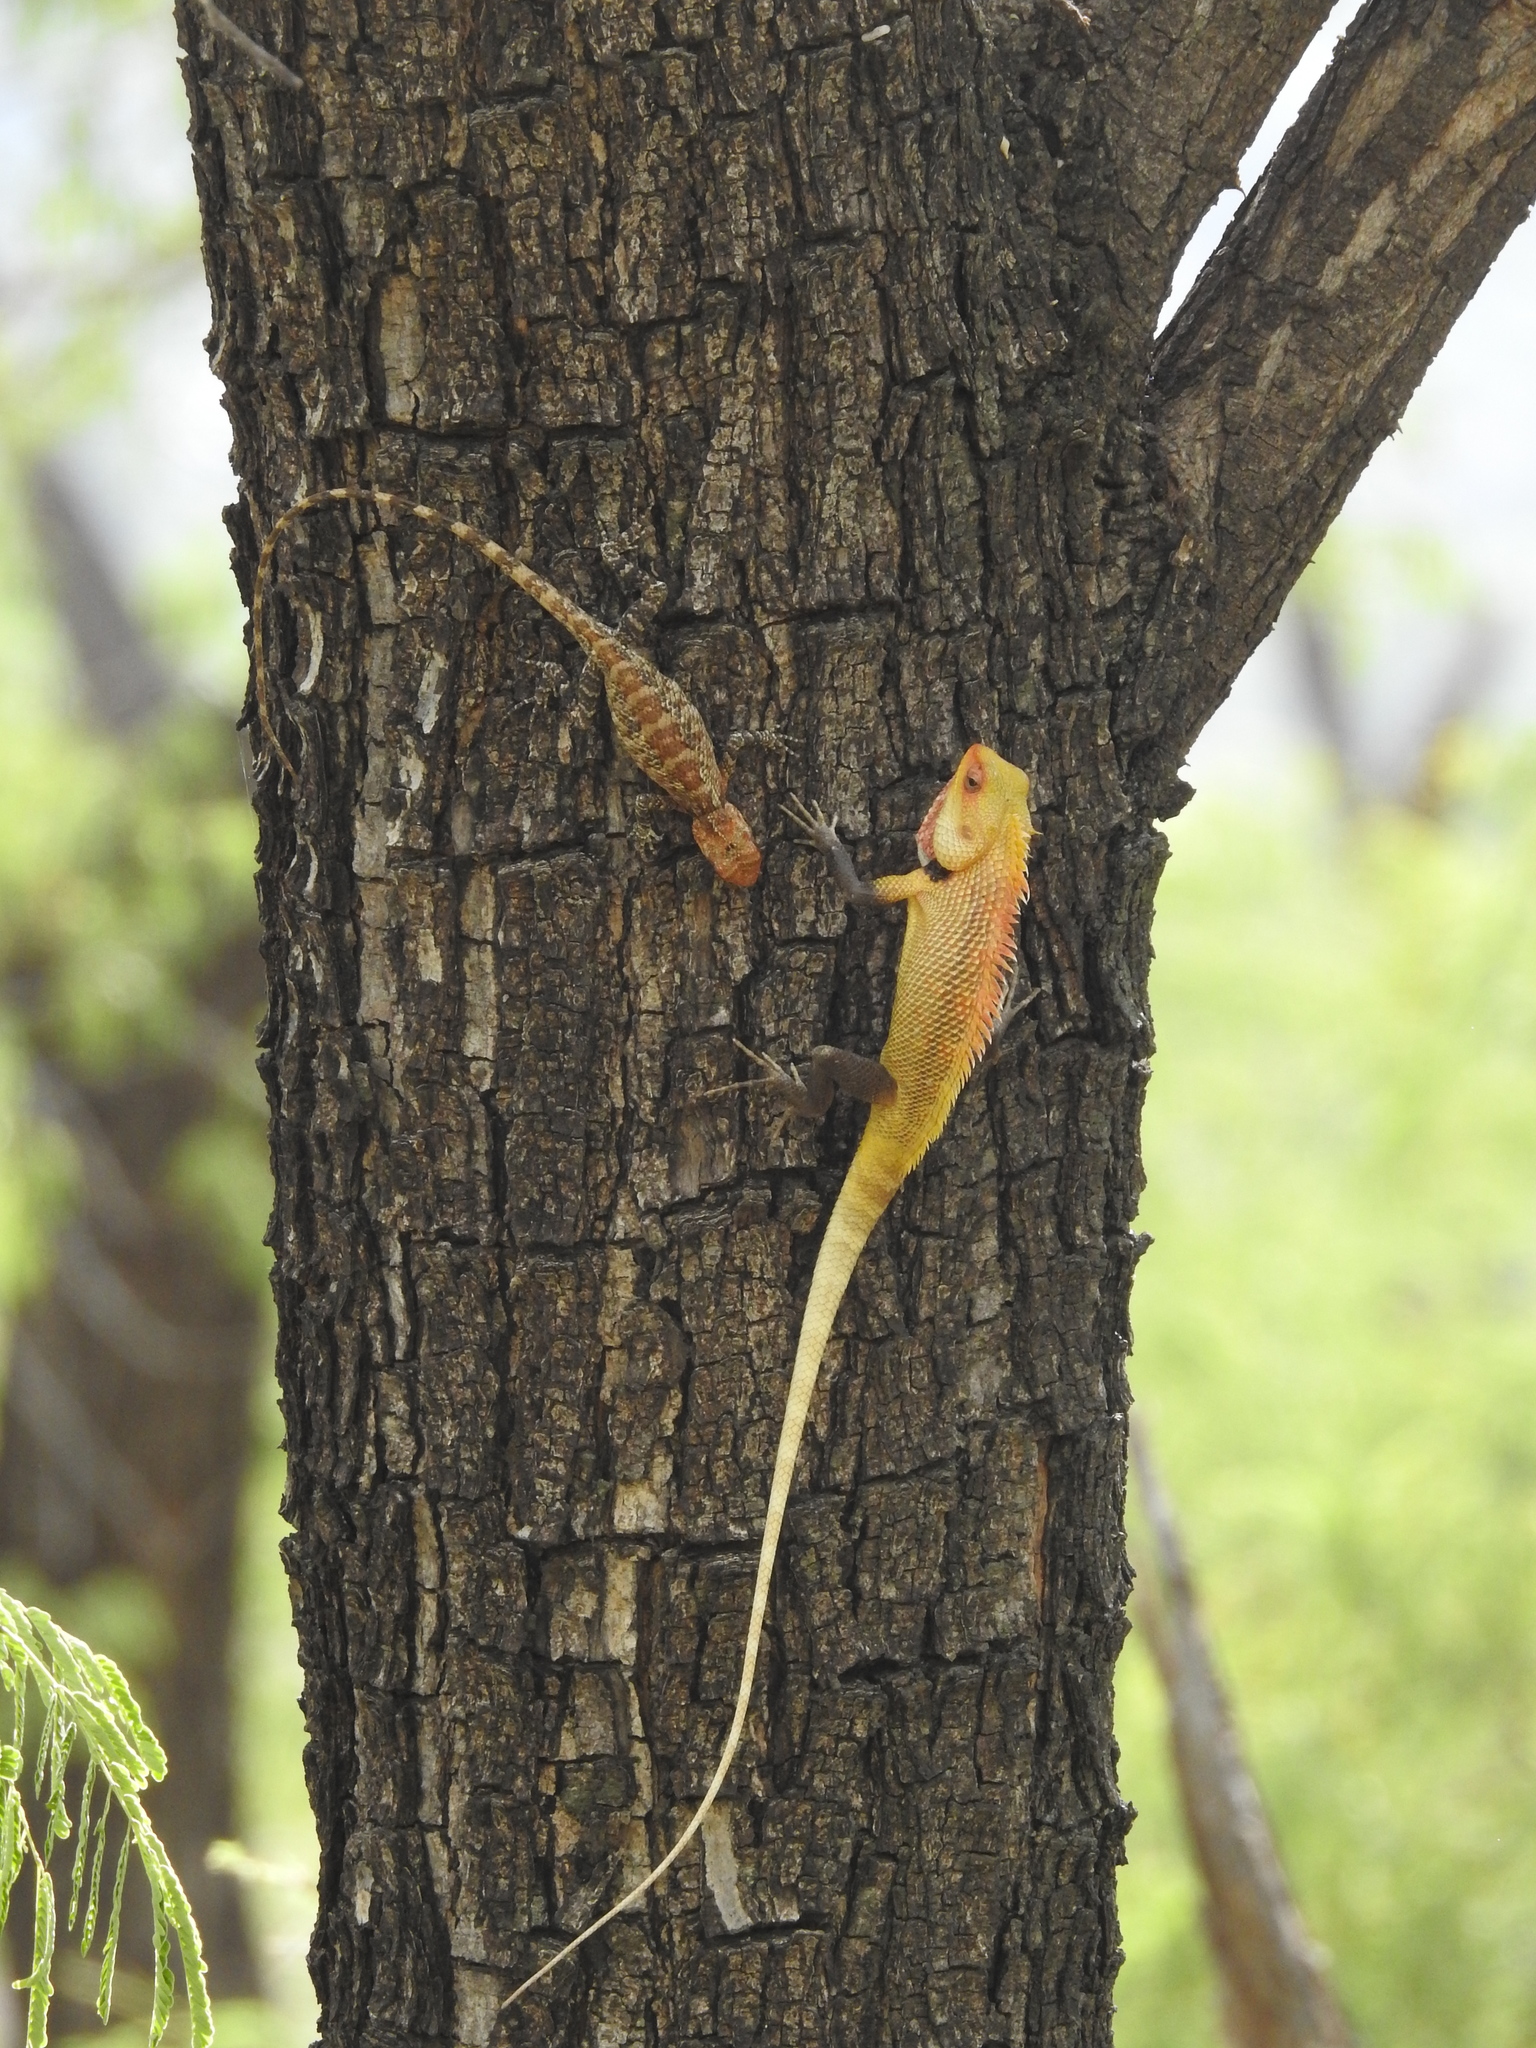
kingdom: Animalia
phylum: Chordata
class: Squamata
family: Agamidae
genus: Calotes
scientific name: Calotes versicolor
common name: Oriental garden lizard
